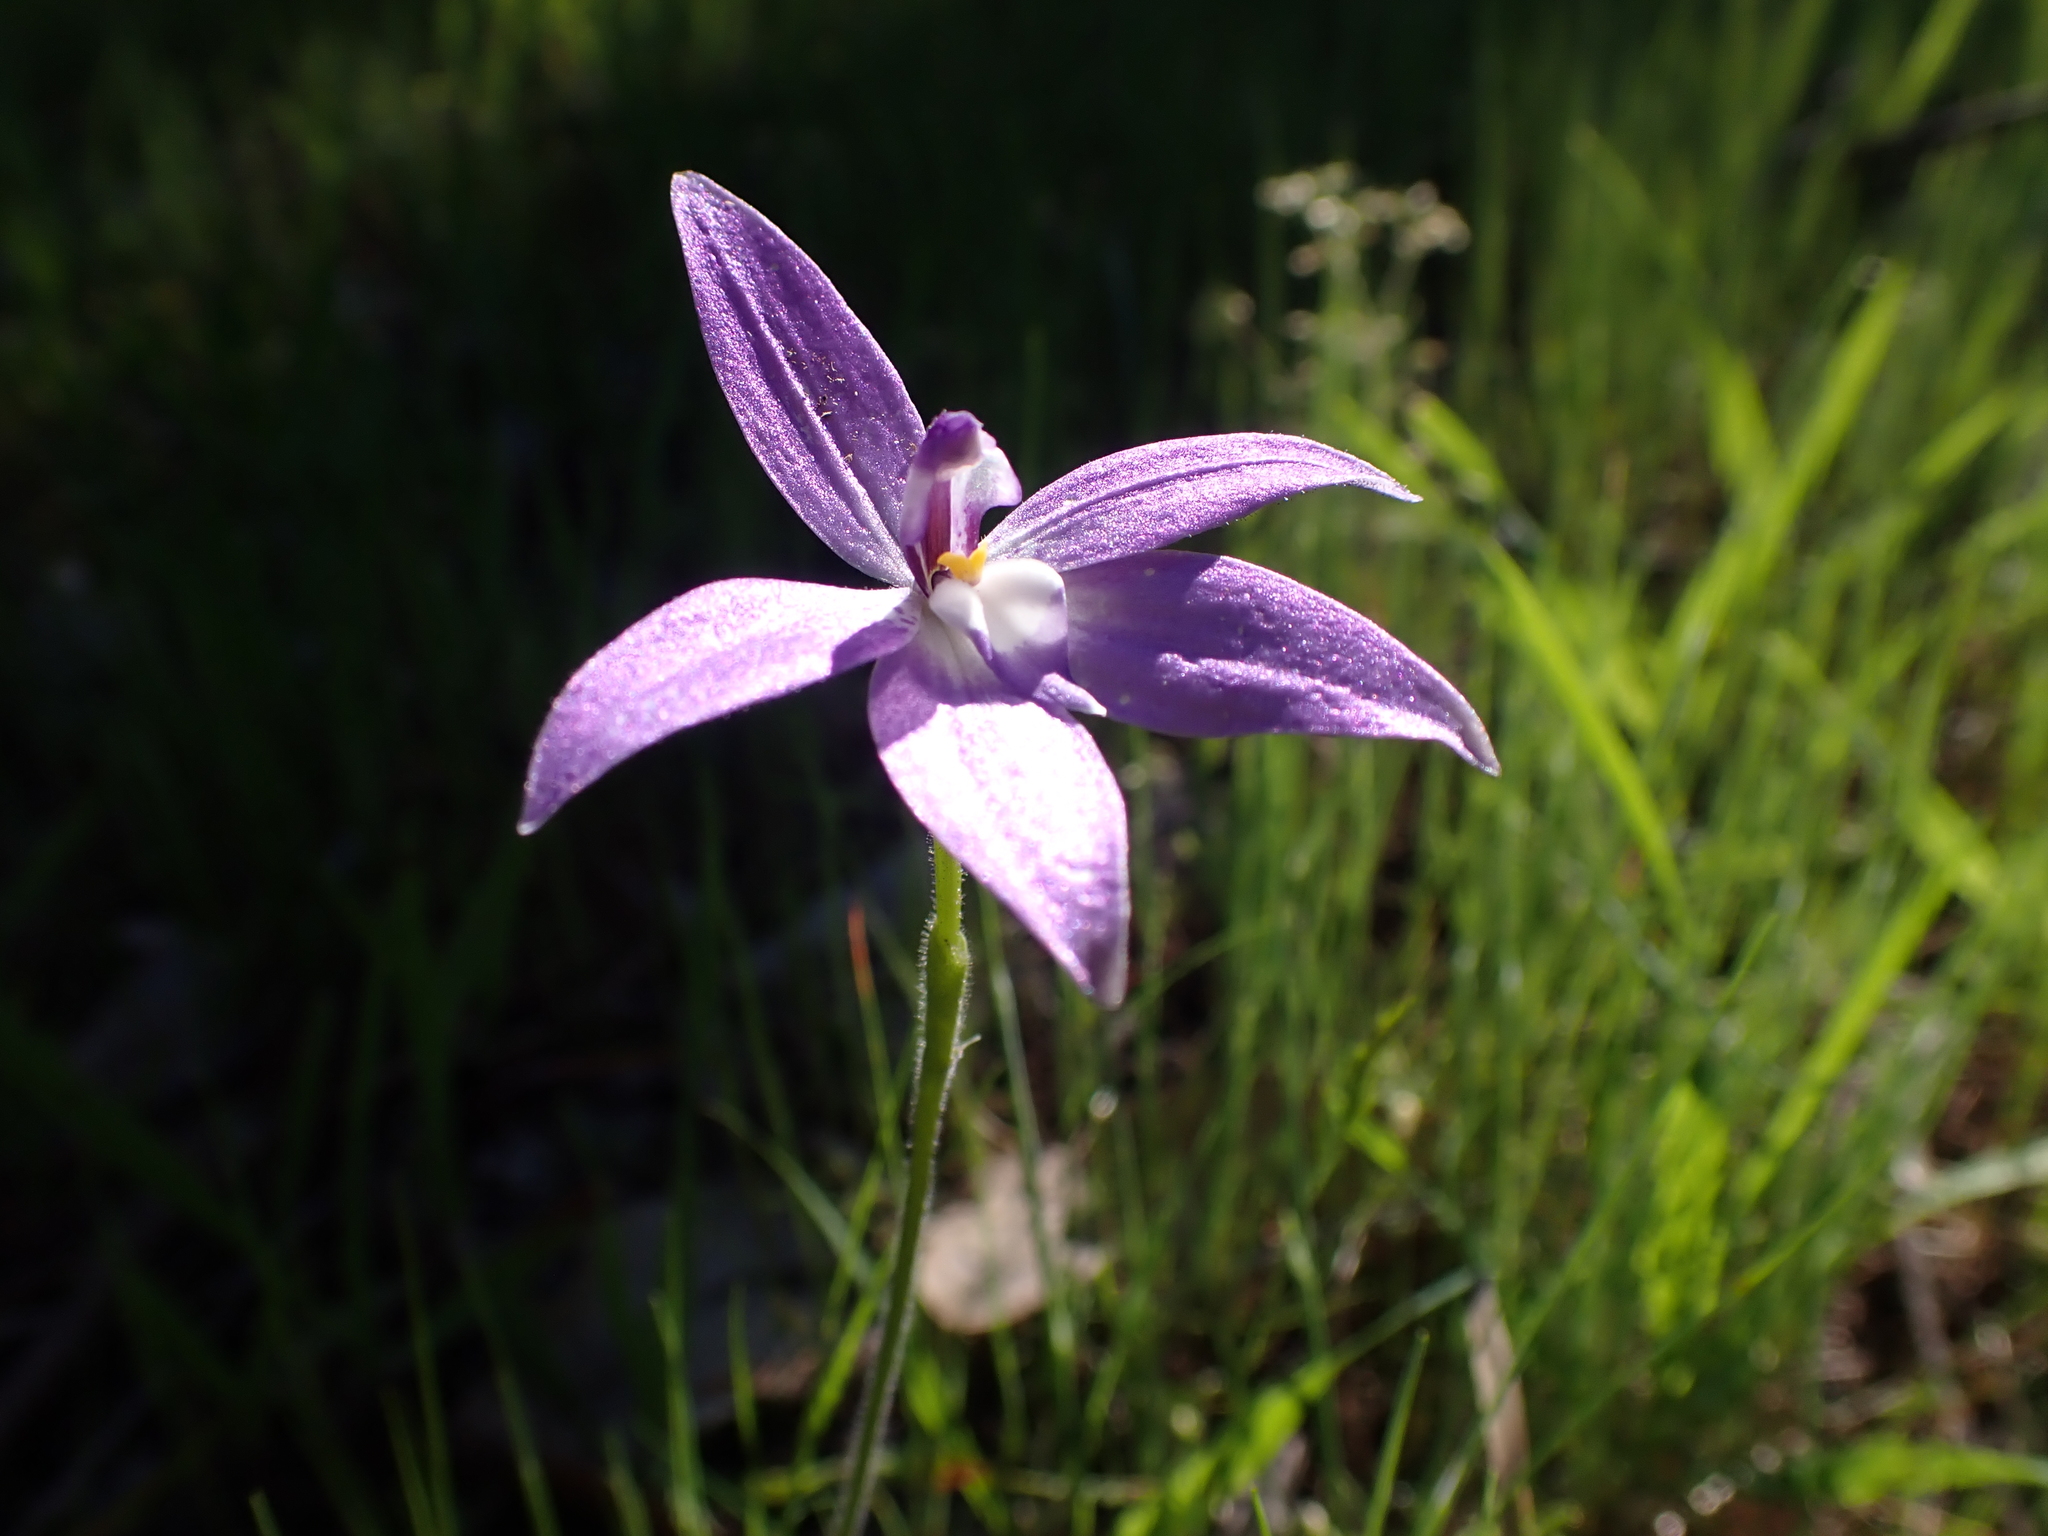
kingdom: Plantae
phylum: Tracheophyta
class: Liliopsida
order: Asparagales
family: Orchidaceae
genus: Caladenia
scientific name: Caladenia major
